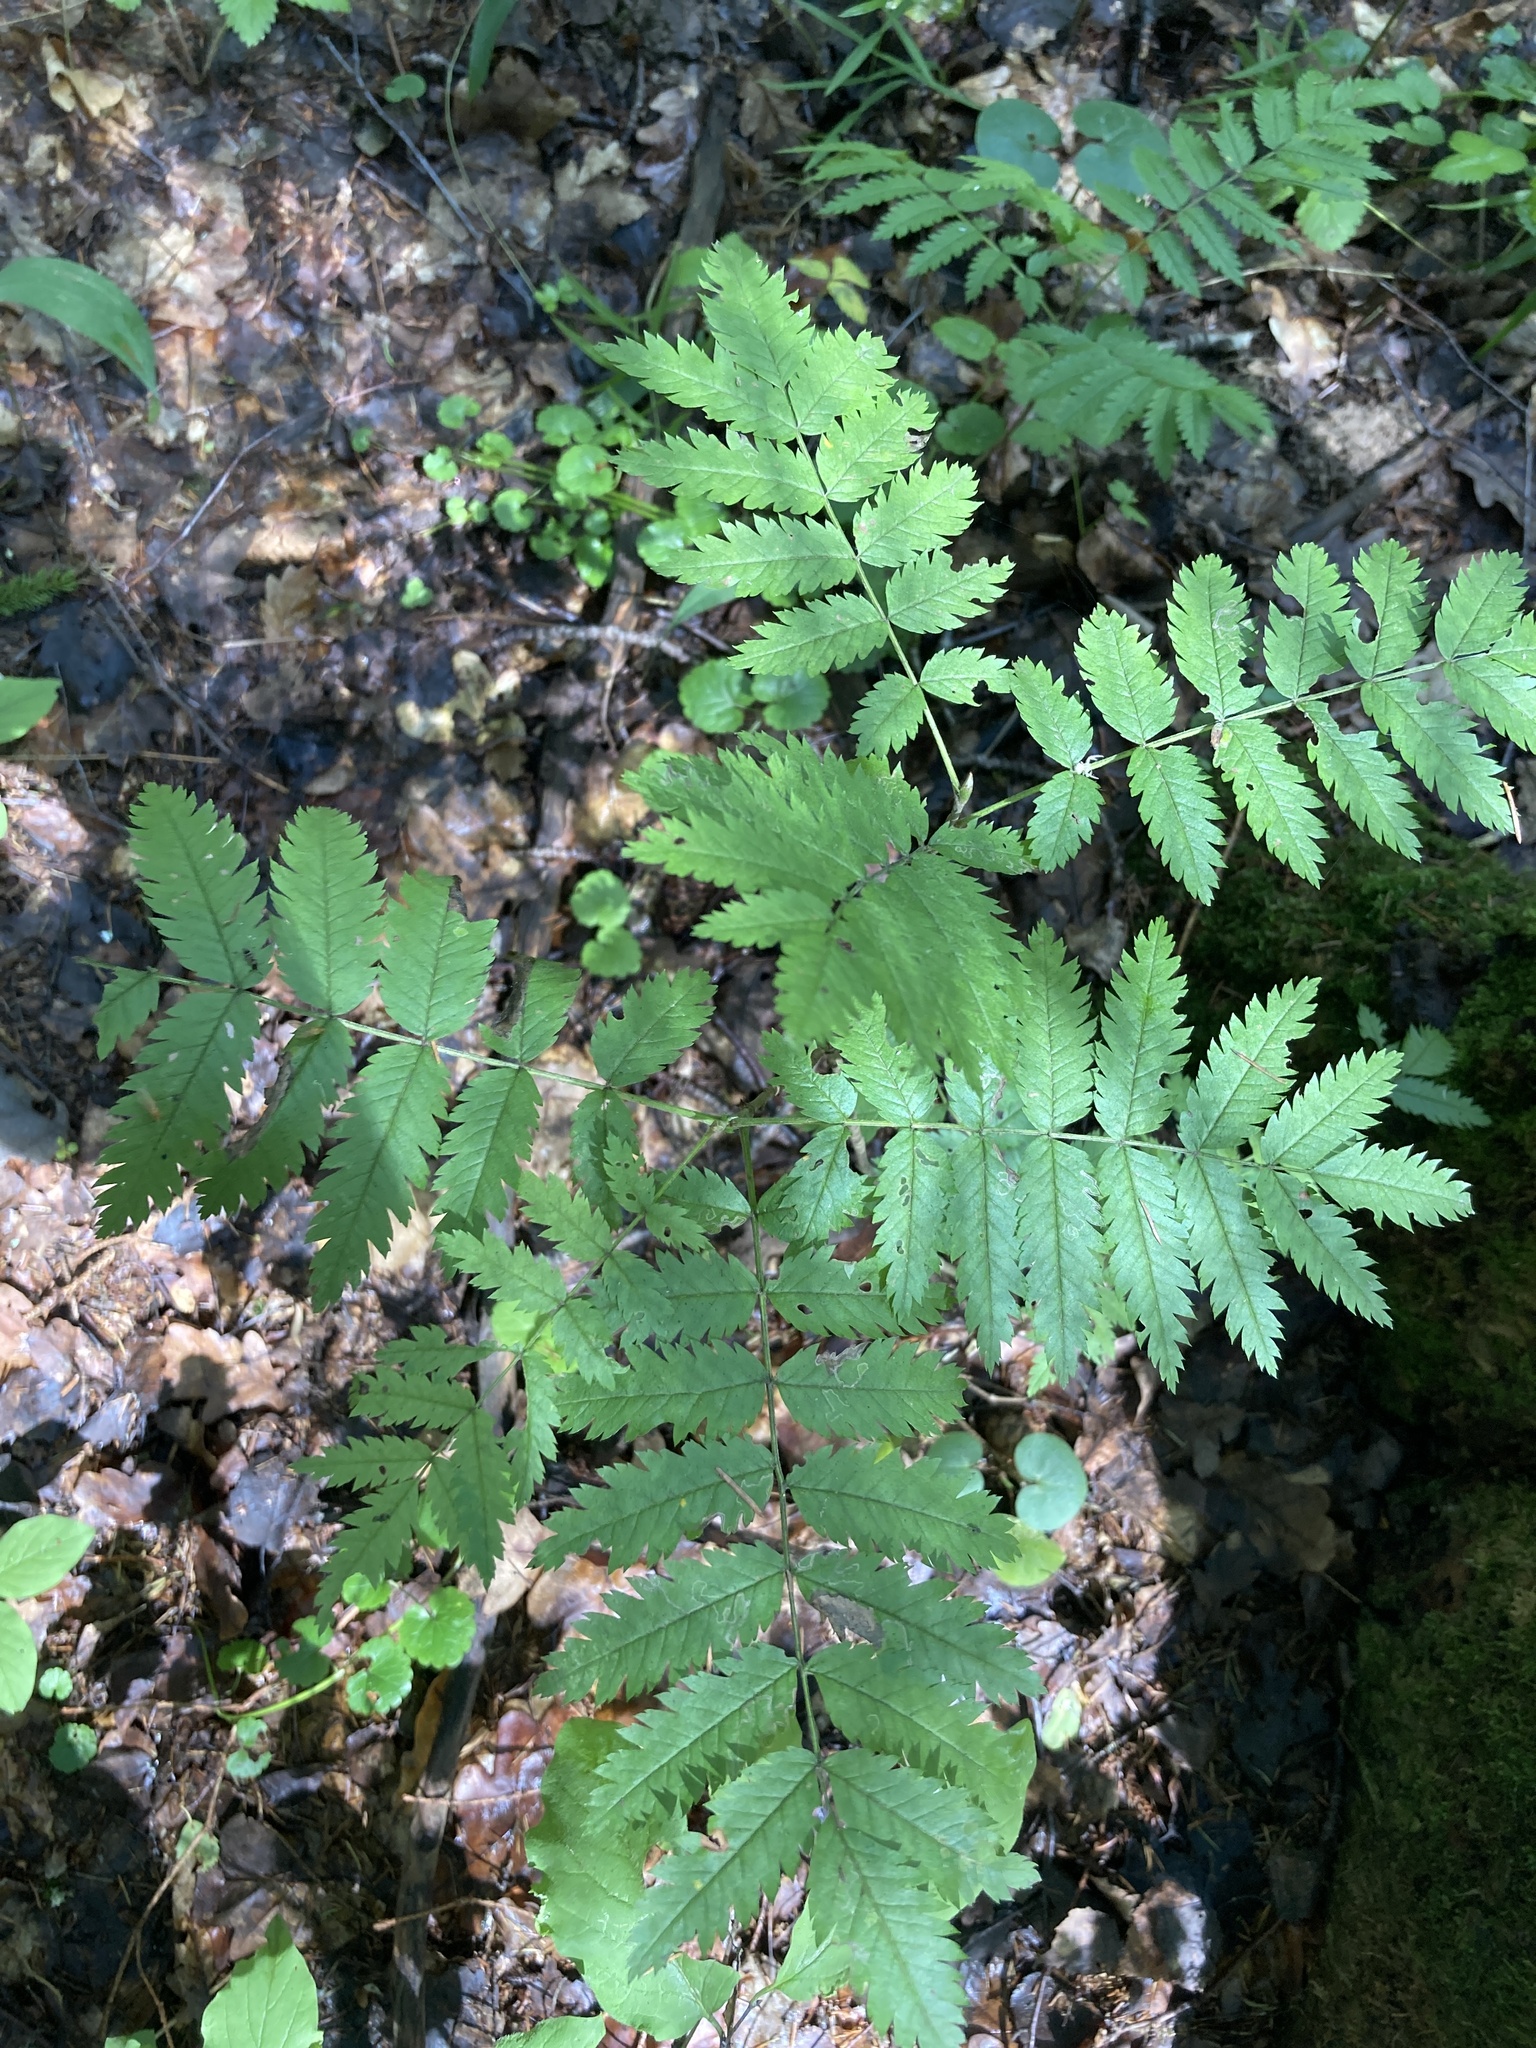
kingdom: Plantae
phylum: Tracheophyta
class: Magnoliopsida
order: Rosales
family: Rosaceae
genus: Sorbus
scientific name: Sorbus aucuparia
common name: Rowan
